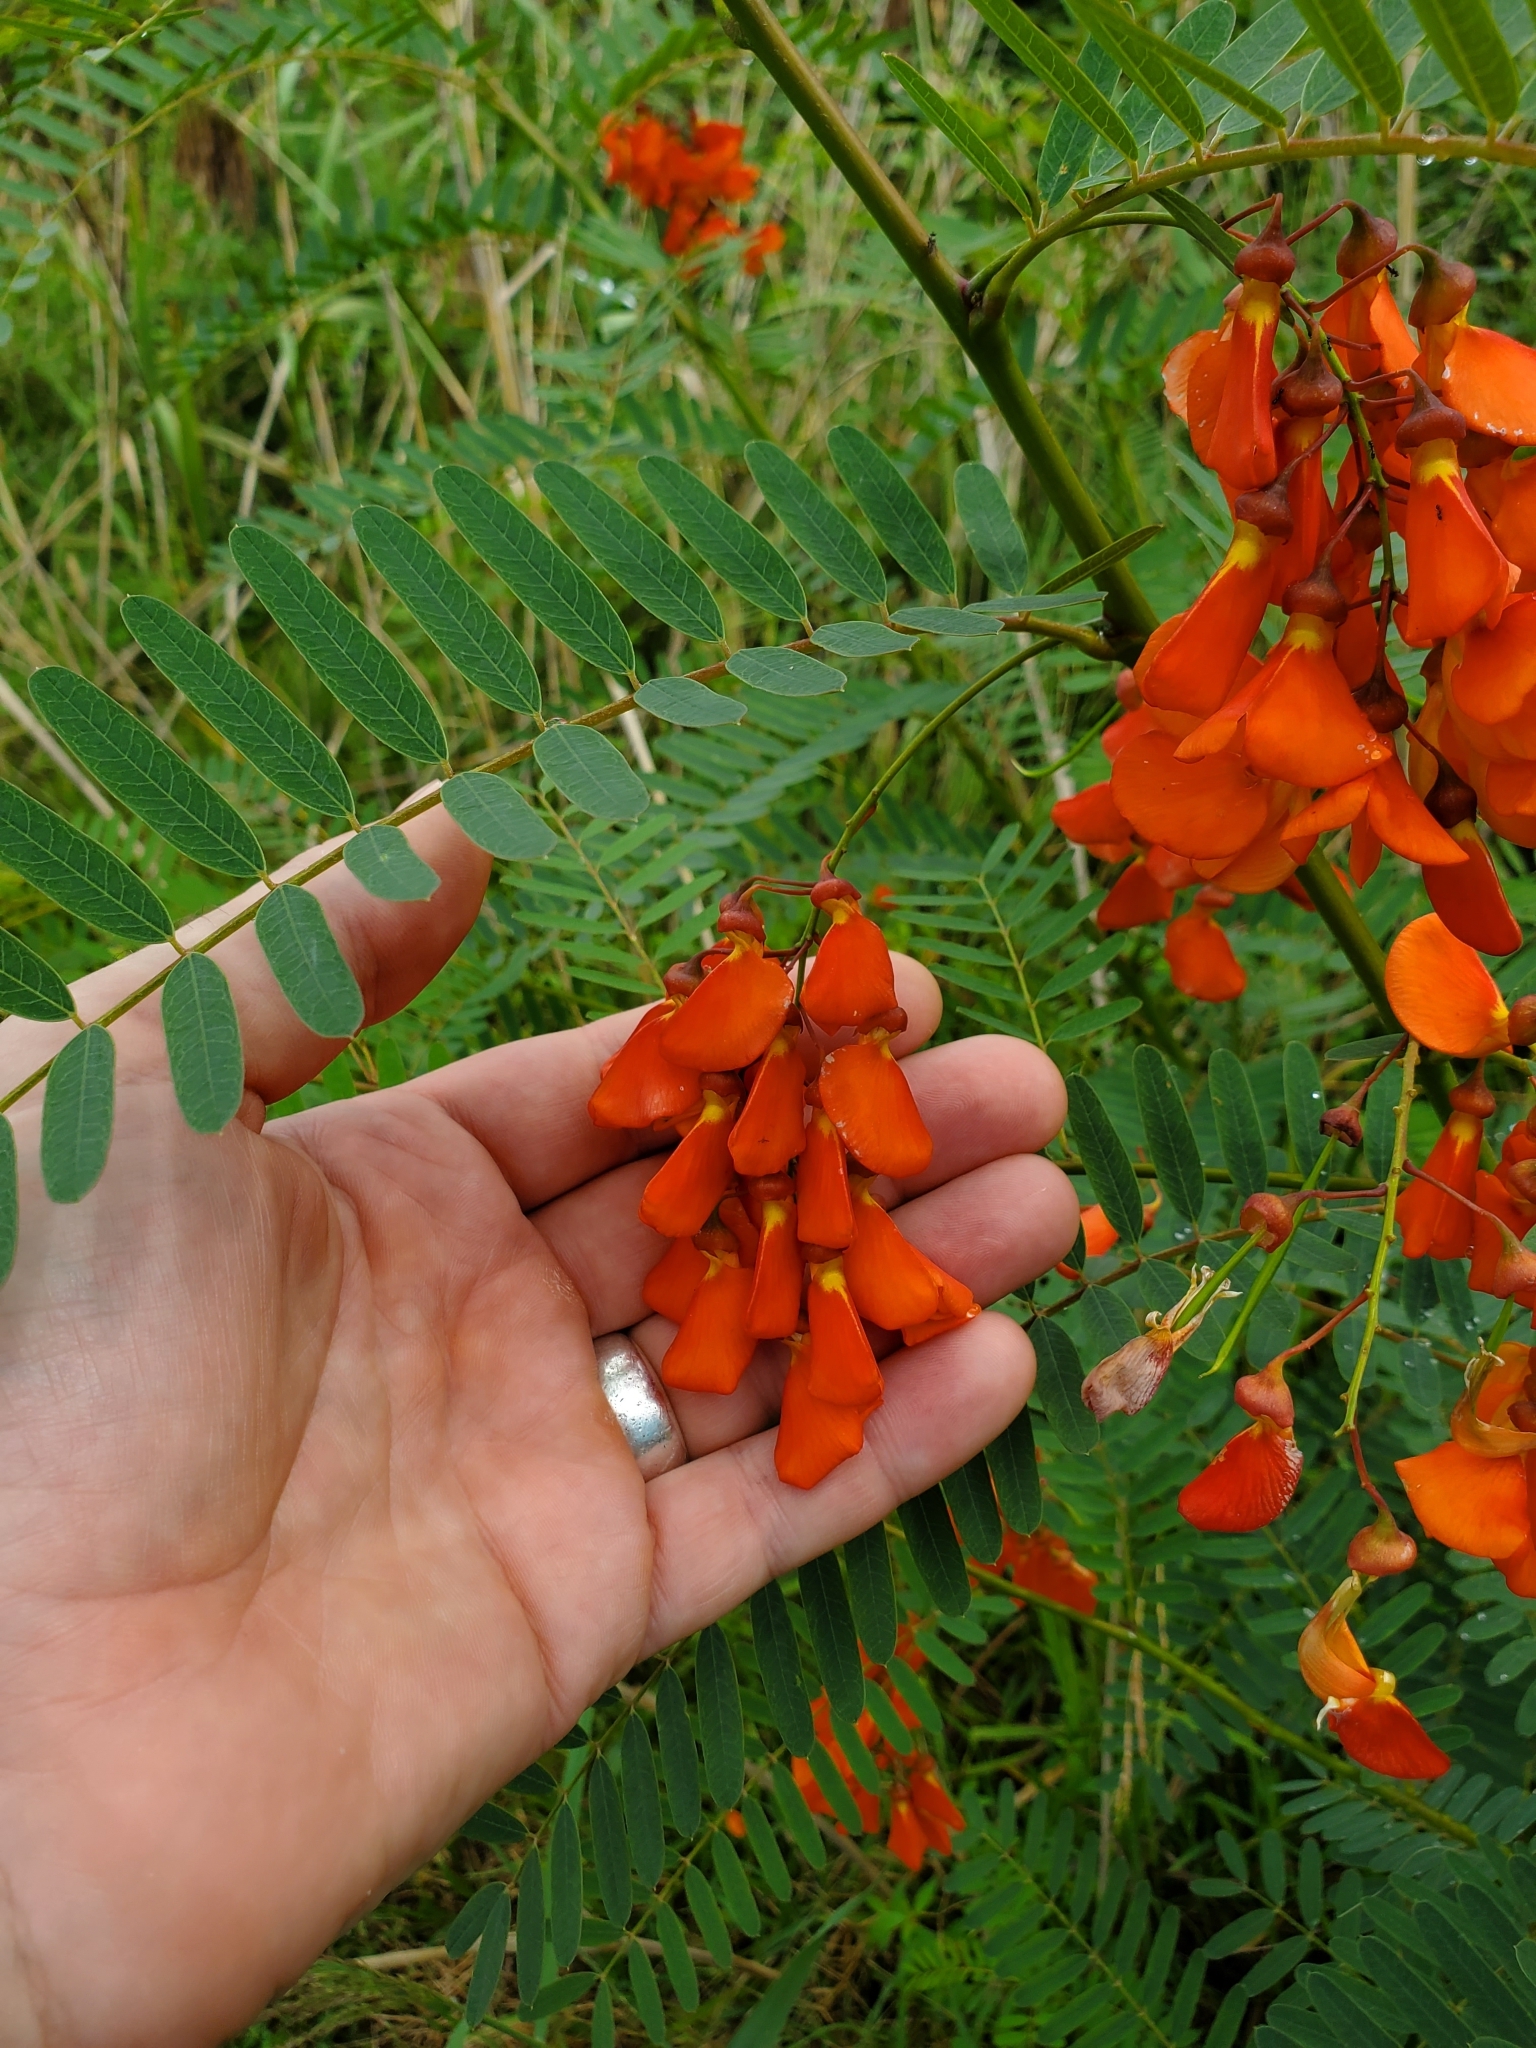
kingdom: Plantae
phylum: Tracheophyta
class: Magnoliopsida
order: Fabales
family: Fabaceae
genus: Sesbania
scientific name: Sesbania punicea
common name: Rattlebox
